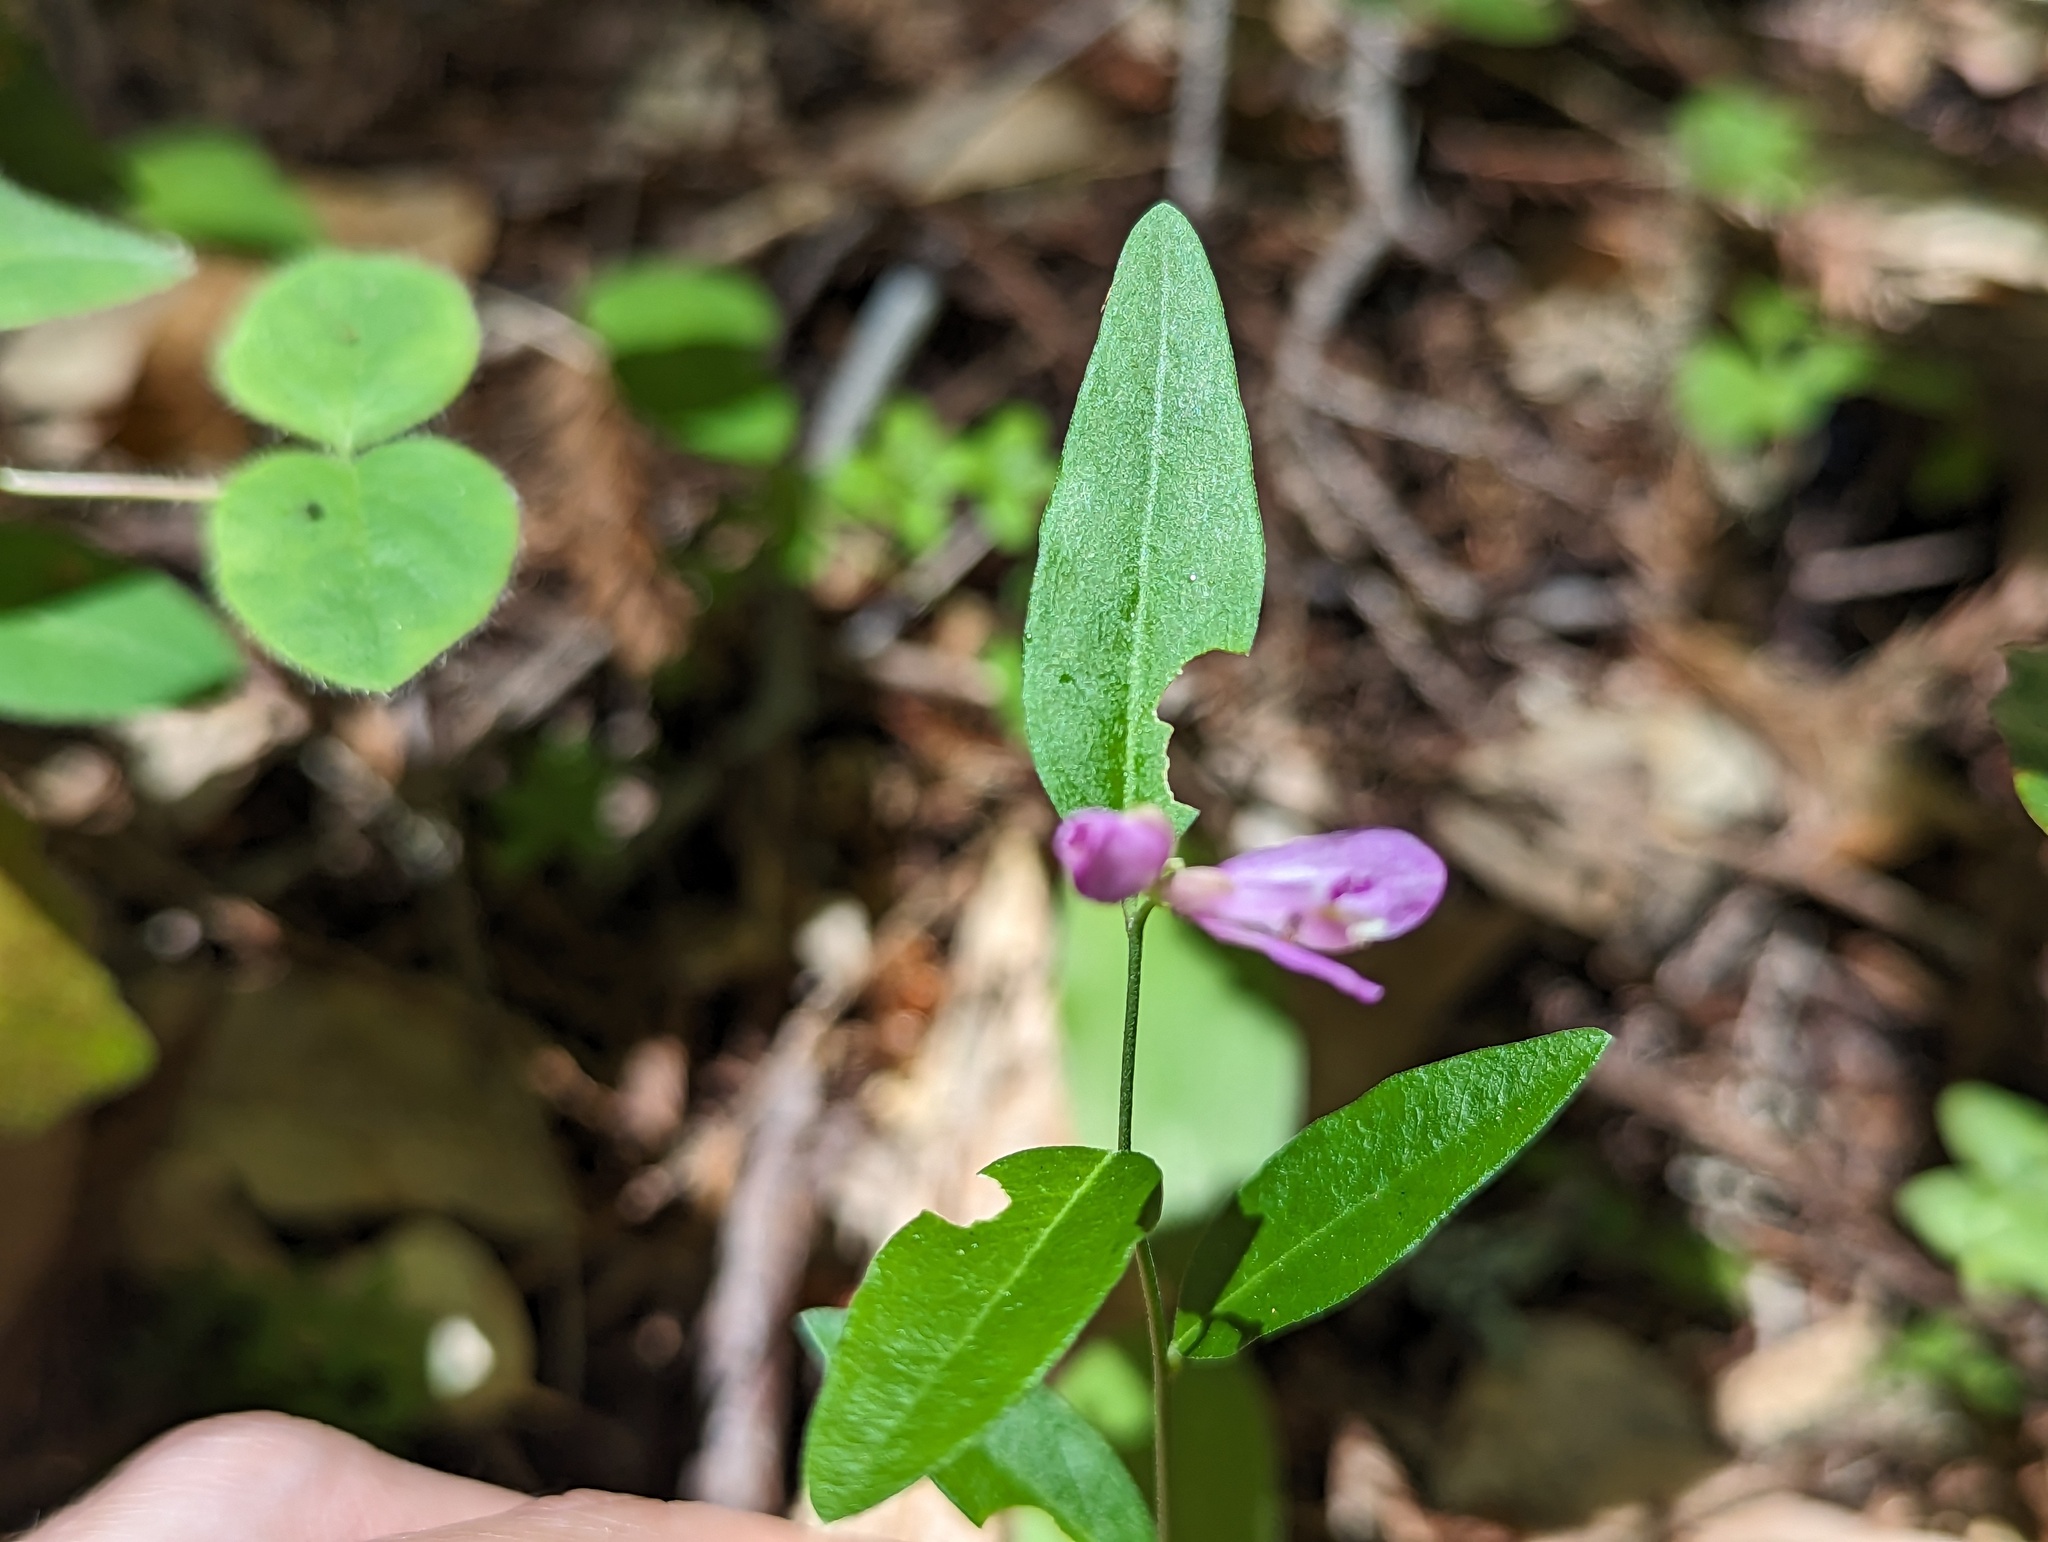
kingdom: Plantae
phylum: Tracheophyta
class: Magnoliopsida
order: Fabales
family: Polygalaceae
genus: Rhinotropis
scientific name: Rhinotropis californica
